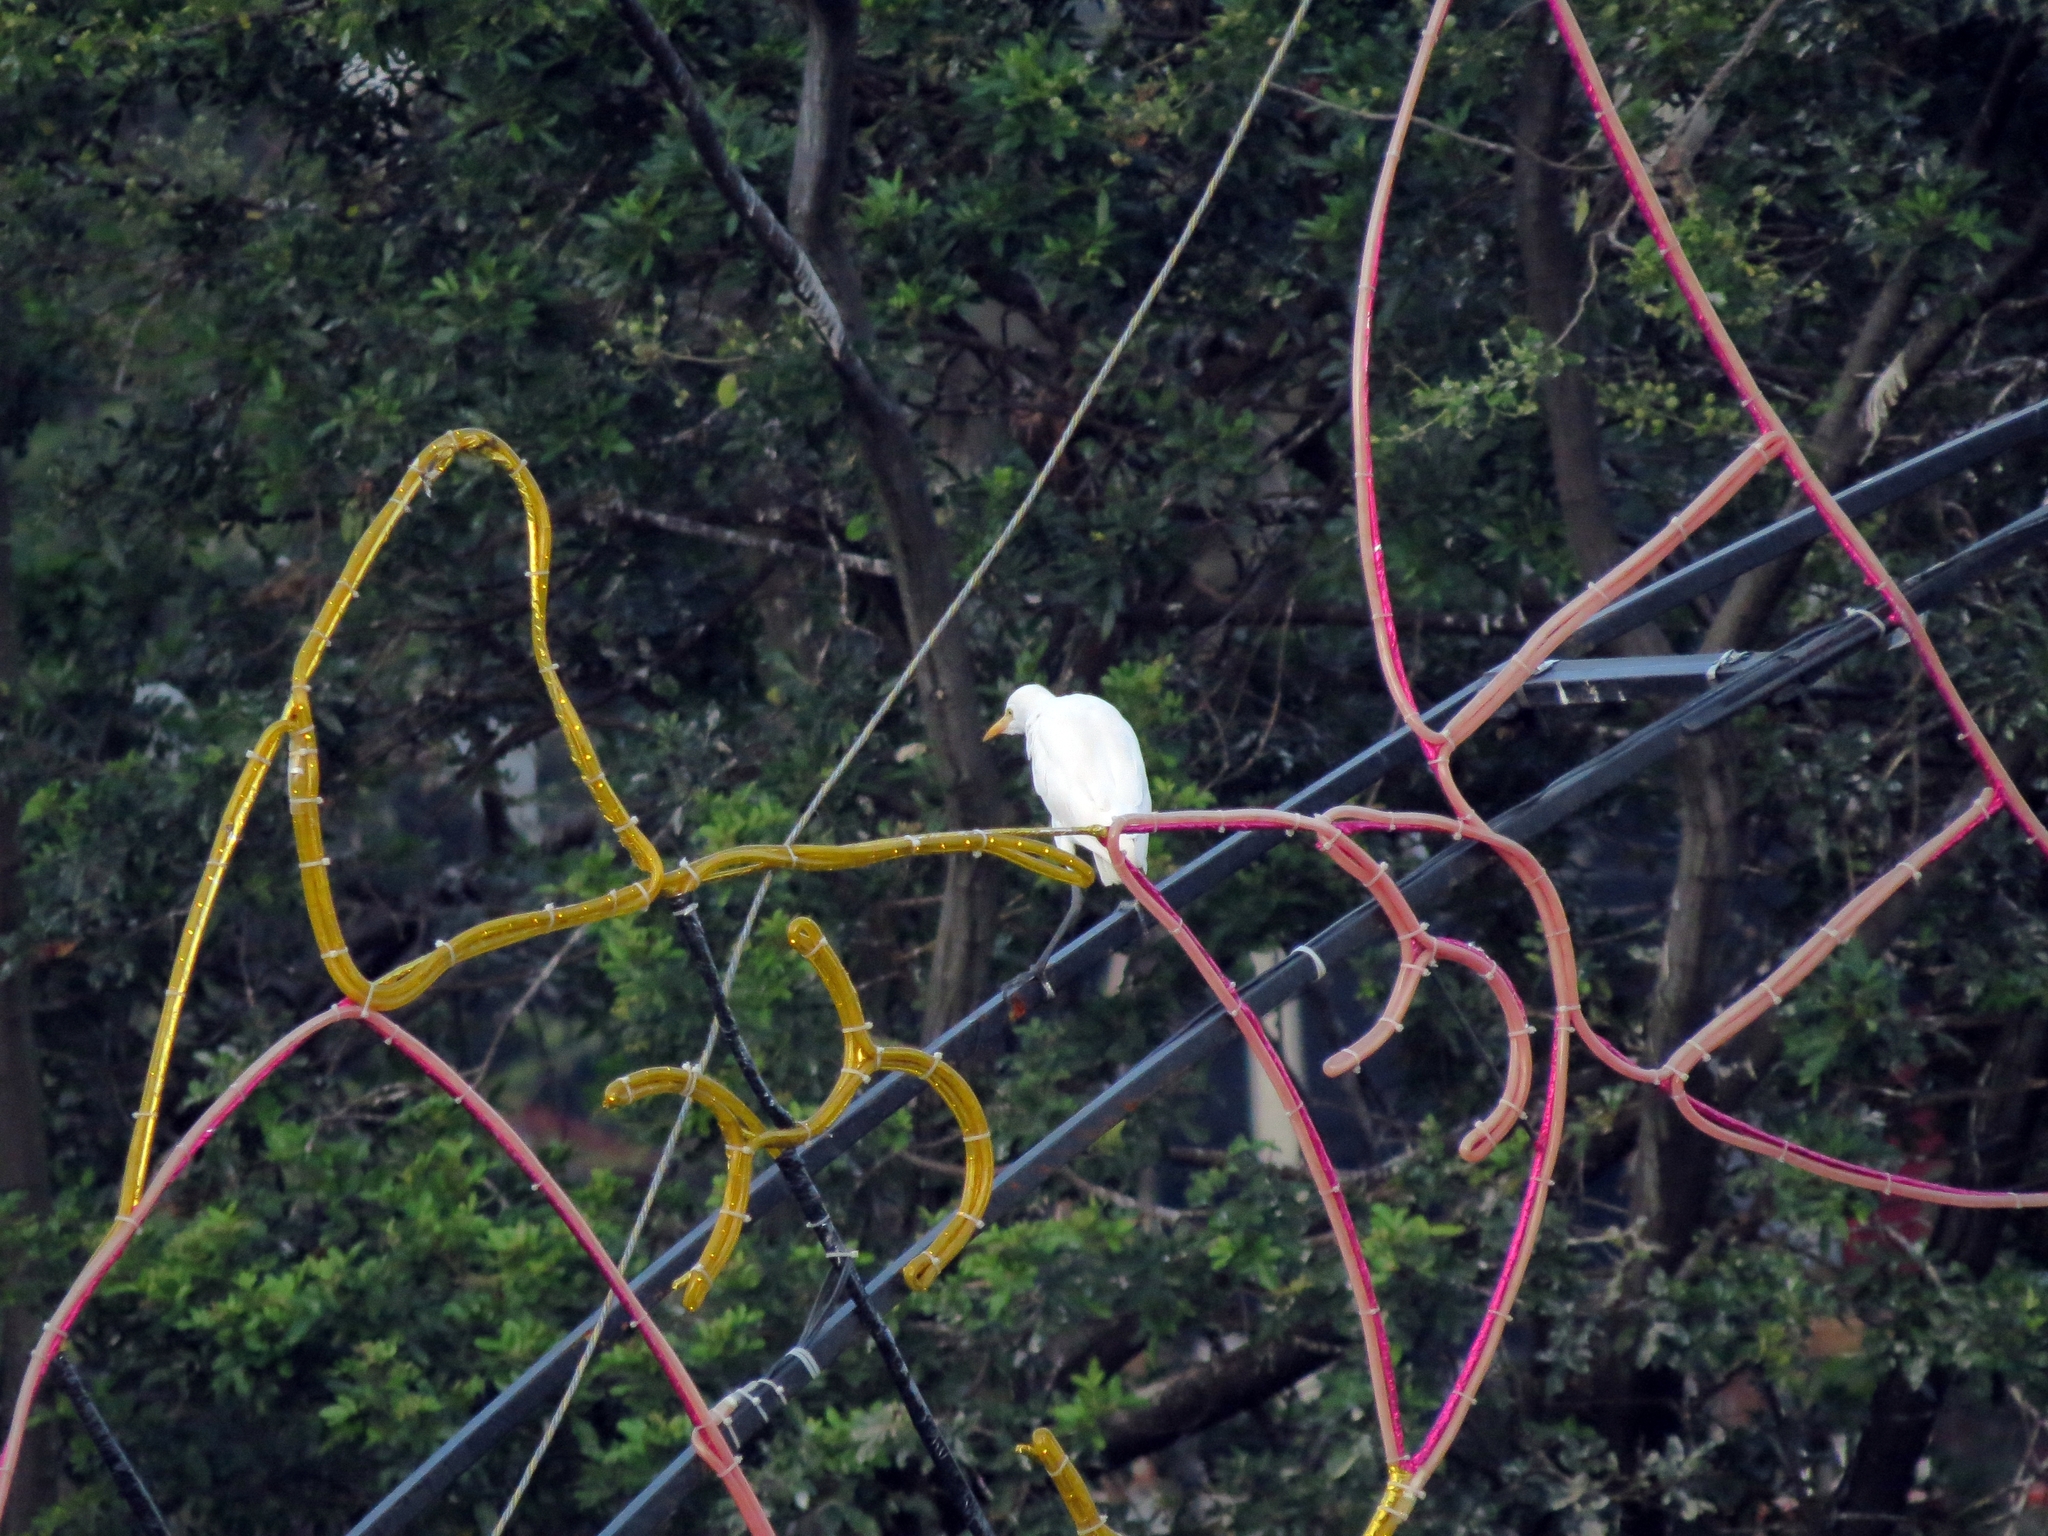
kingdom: Animalia
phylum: Chordata
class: Aves
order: Pelecaniformes
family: Ardeidae
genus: Bubulcus
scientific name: Bubulcus ibis
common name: Cattle egret
